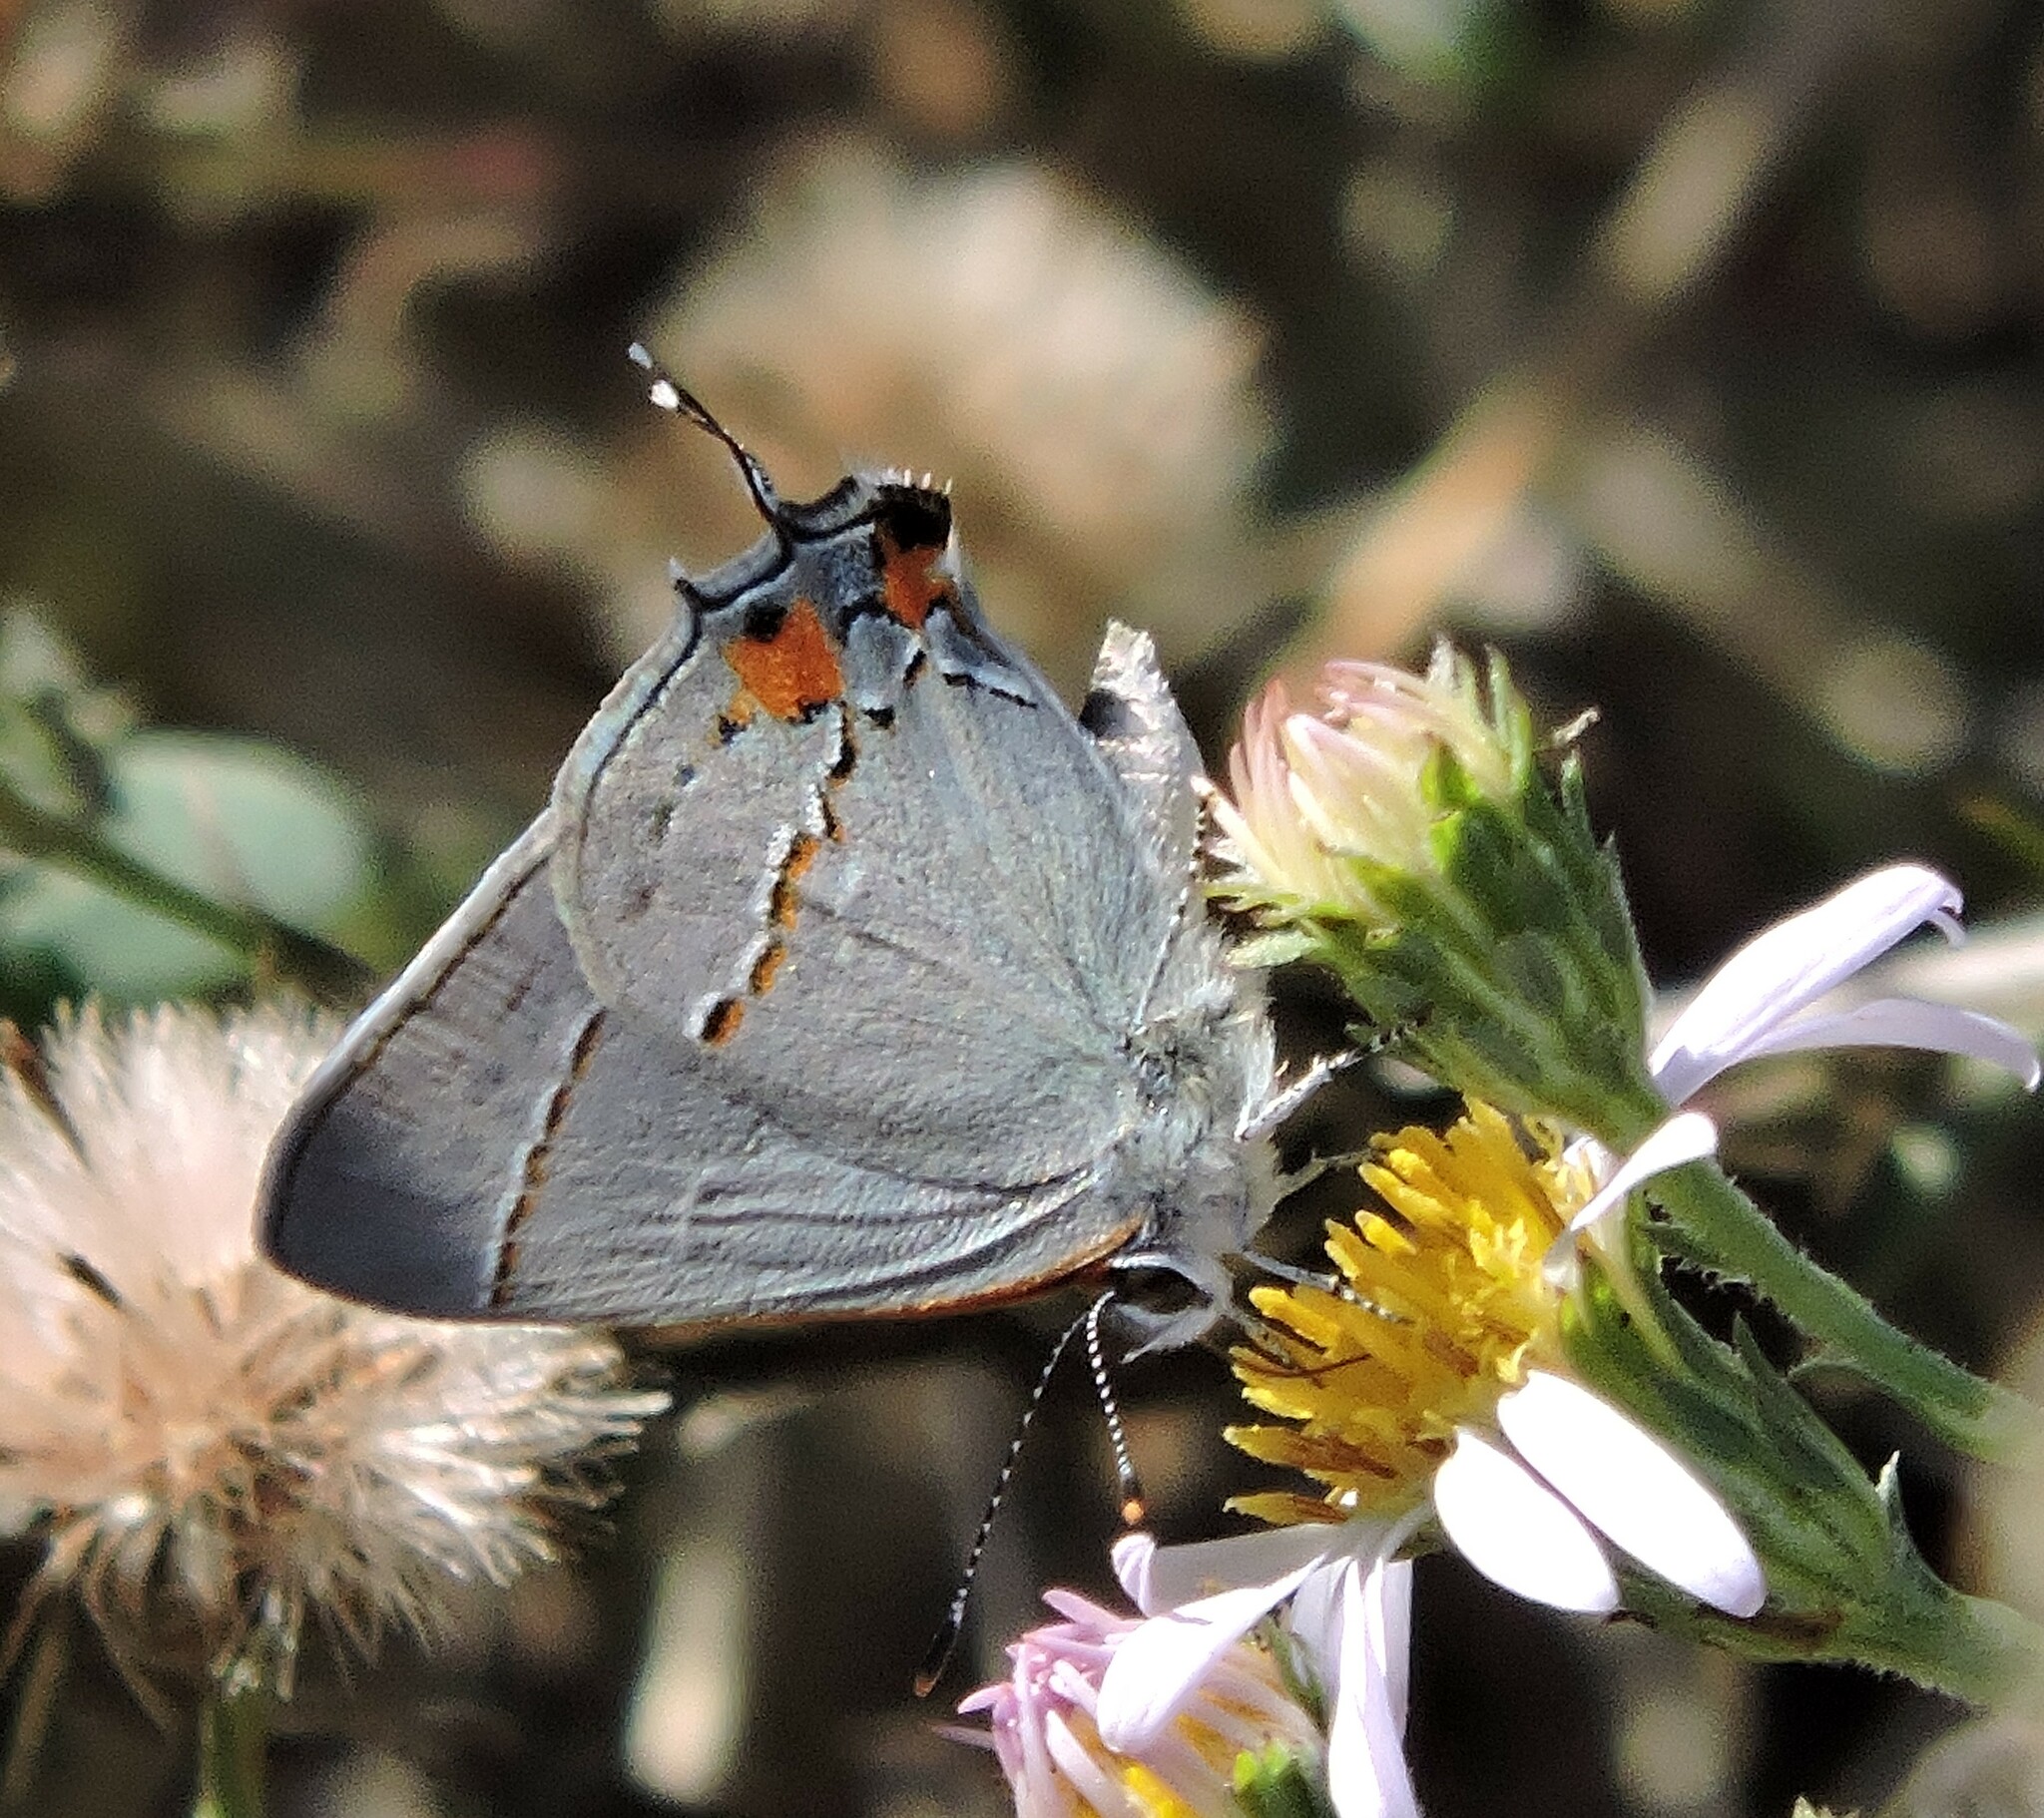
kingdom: Animalia
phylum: Arthropoda
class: Insecta
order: Lepidoptera
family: Lycaenidae
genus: Strymon
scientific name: Strymon melinus
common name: Gray hairstreak
